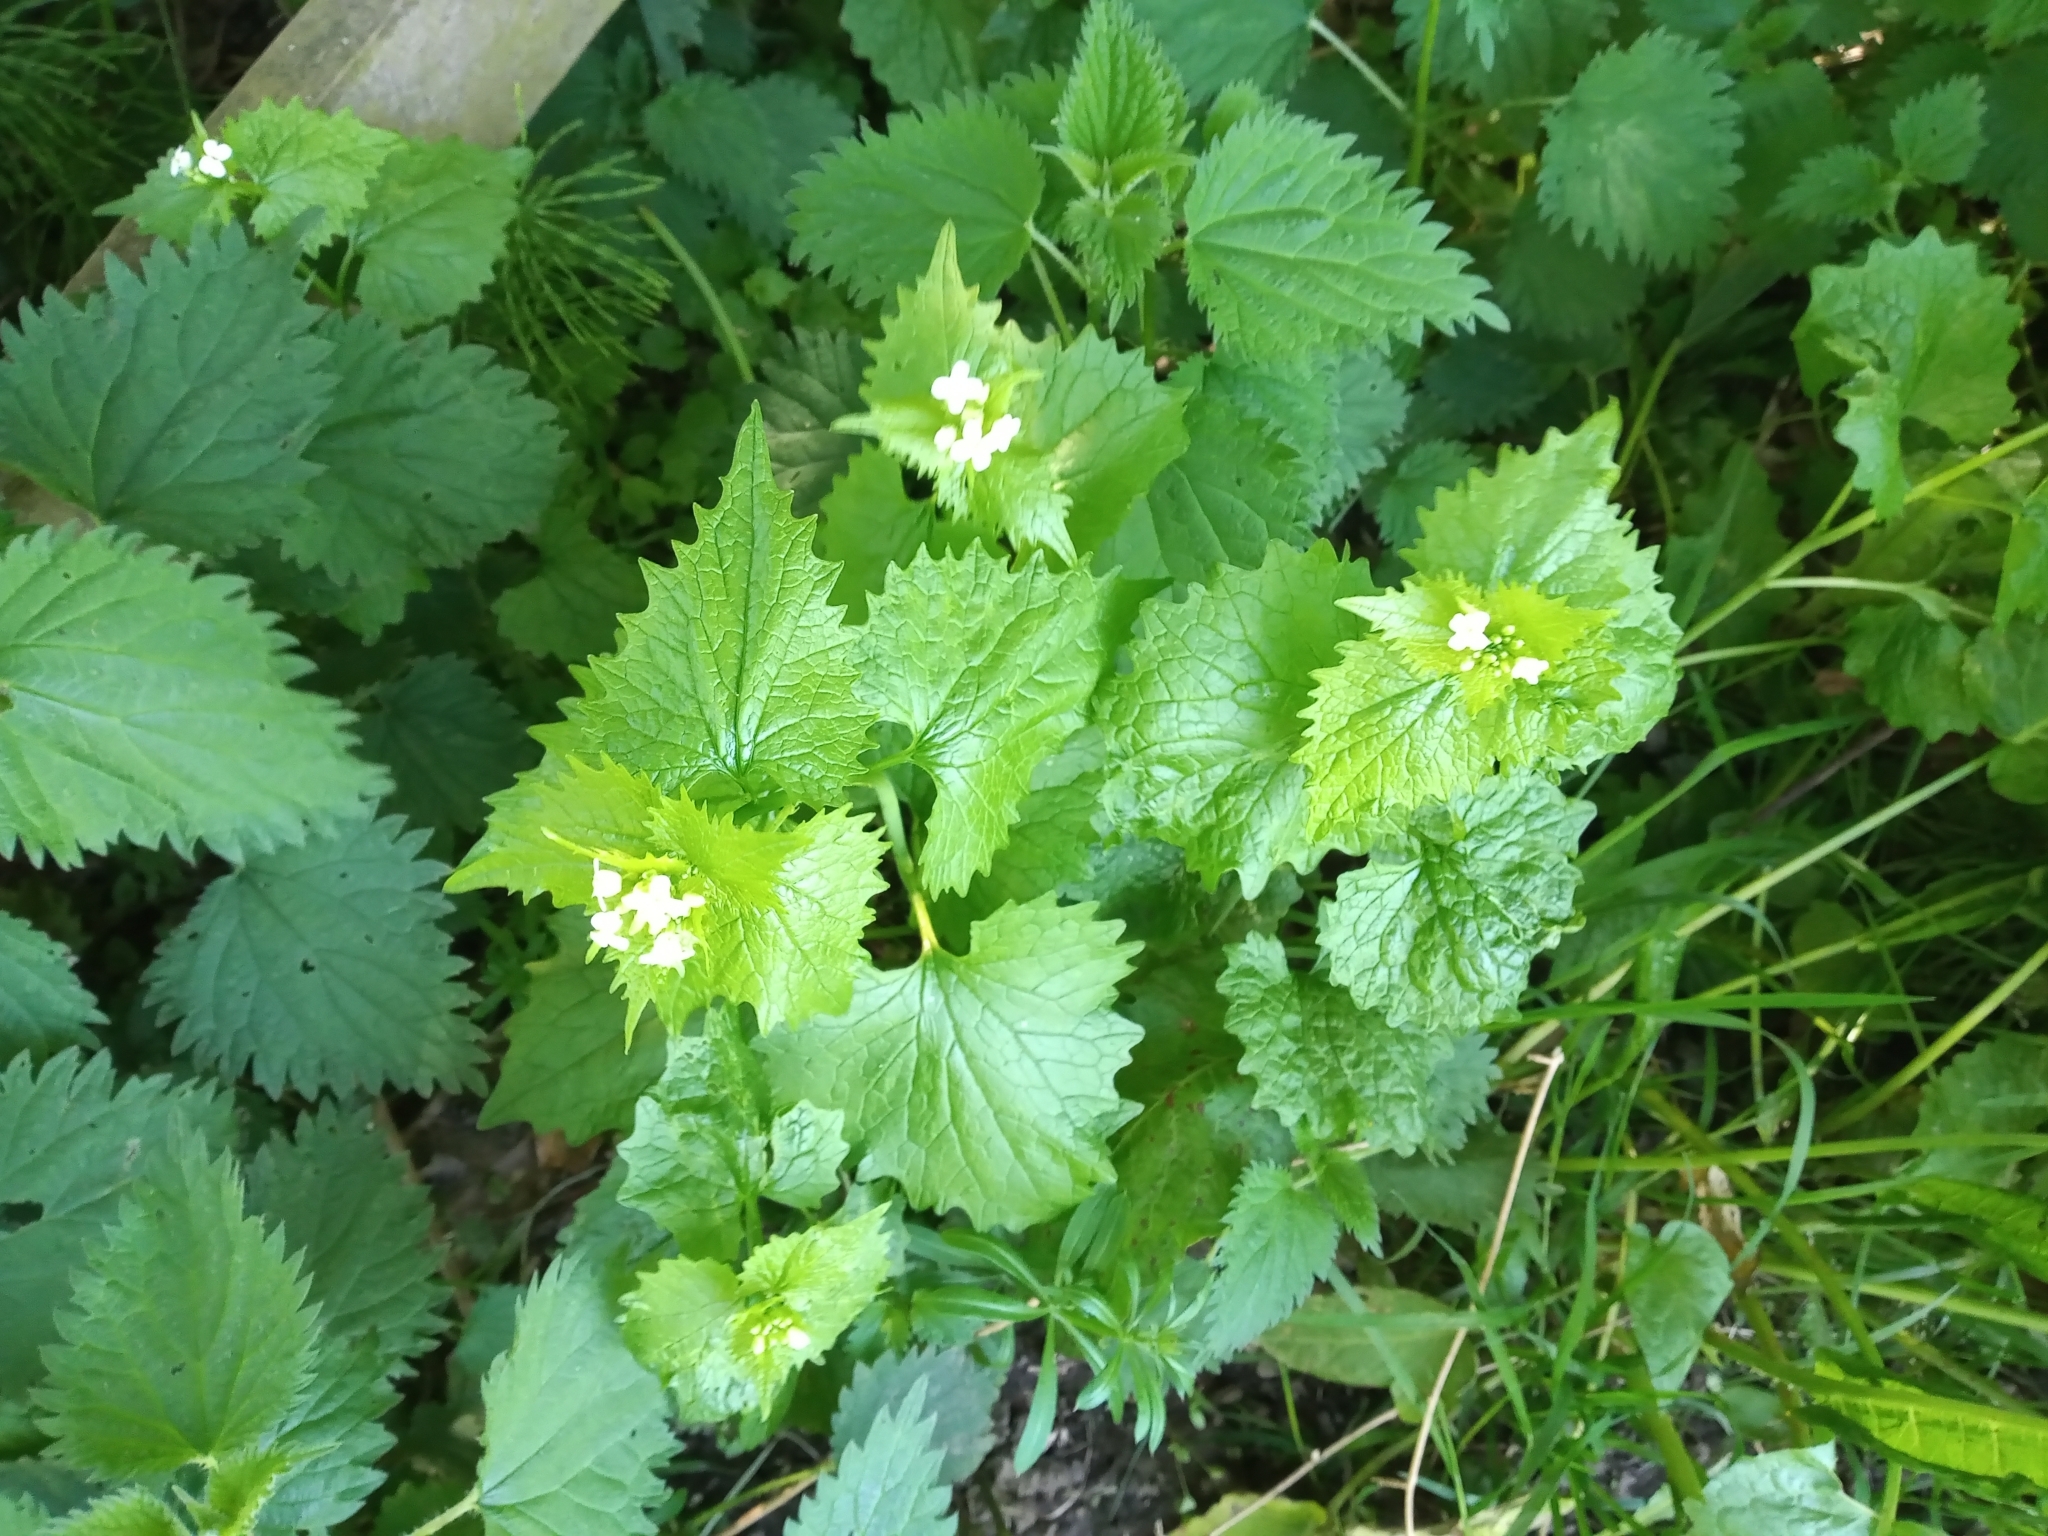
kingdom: Plantae
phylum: Tracheophyta
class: Magnoliopsida
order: Brassicales
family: Brassicaceae
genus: Alliaria
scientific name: Alliaria petiolata
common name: Garlic mustard
